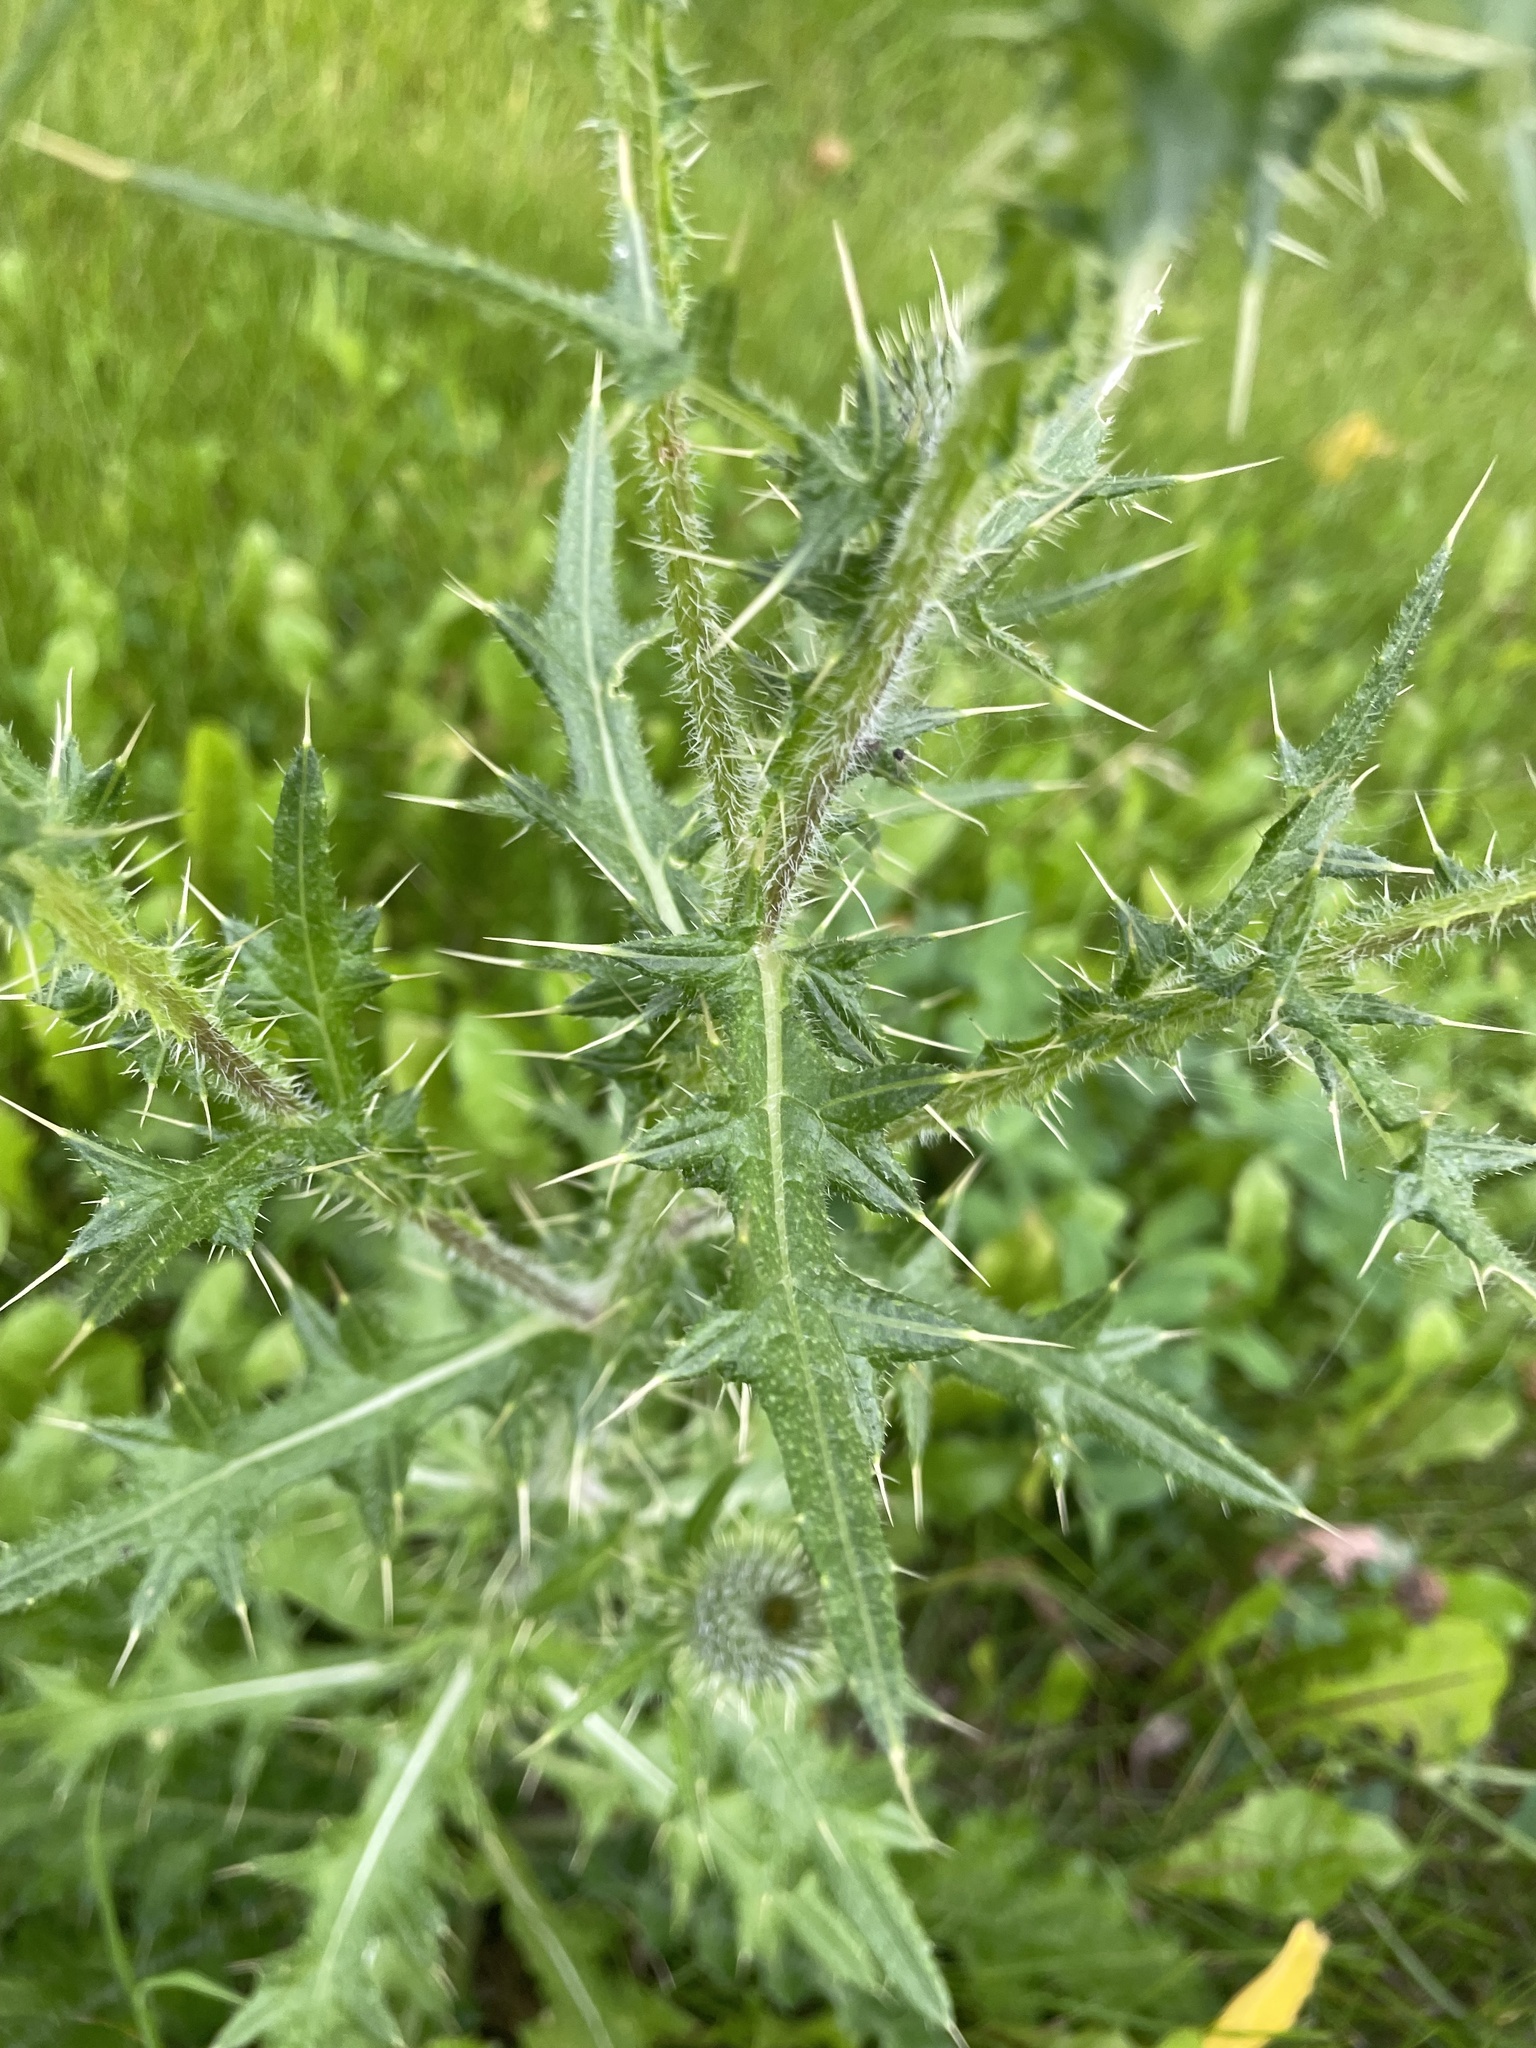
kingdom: Plantae
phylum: Tracheophyta
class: Magnoliopsida
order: Asterales
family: Asteraceae
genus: Cirsium
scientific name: Cirsium vulgare
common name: Bull thistle
